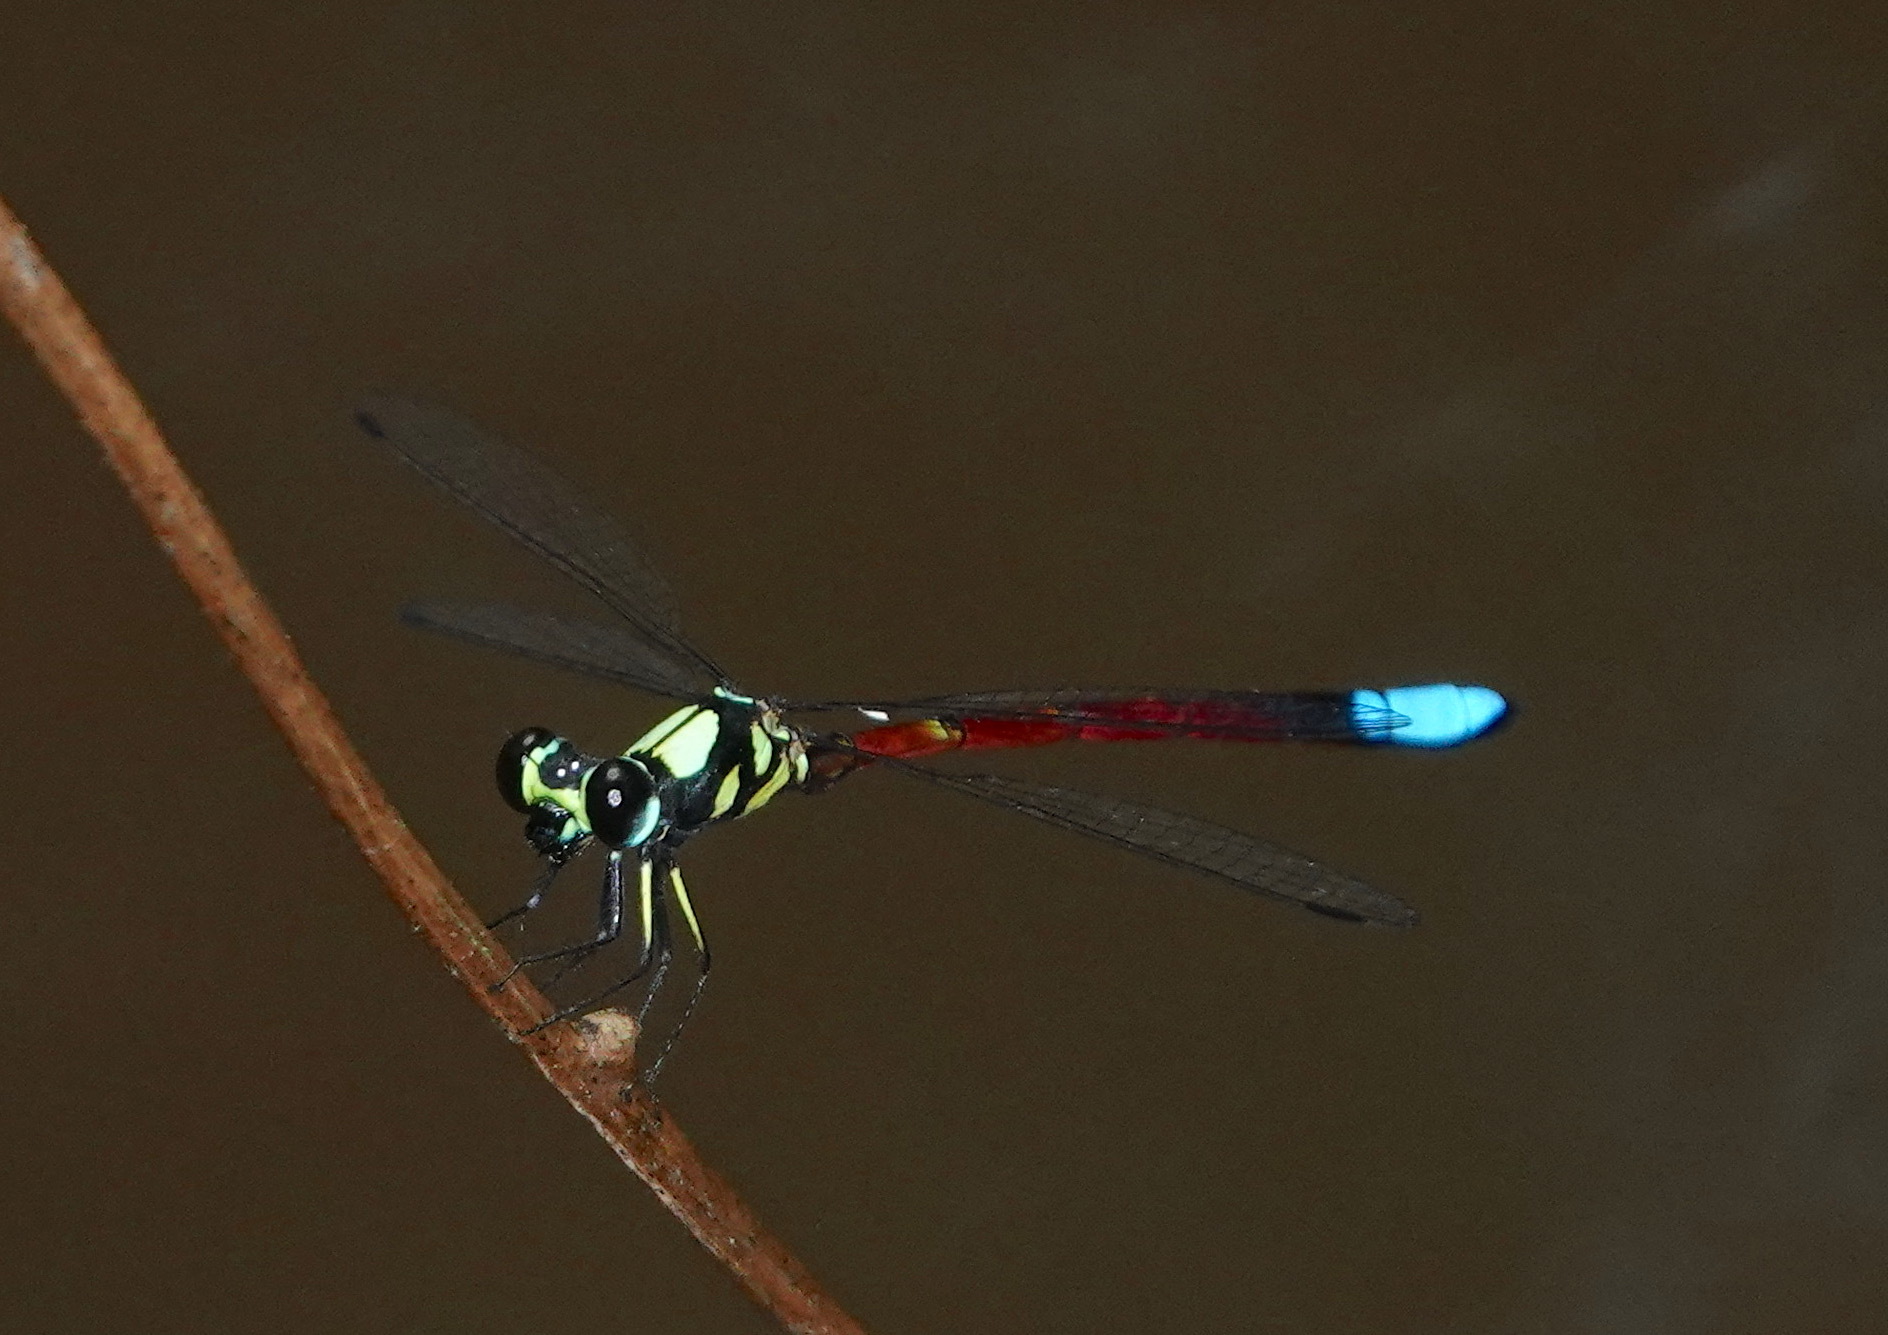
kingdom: Animalia
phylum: Arthropoda
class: Insecta
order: Odonata
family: Philosinidae
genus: Rhinagrion
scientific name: Rhinagrion elopurae
